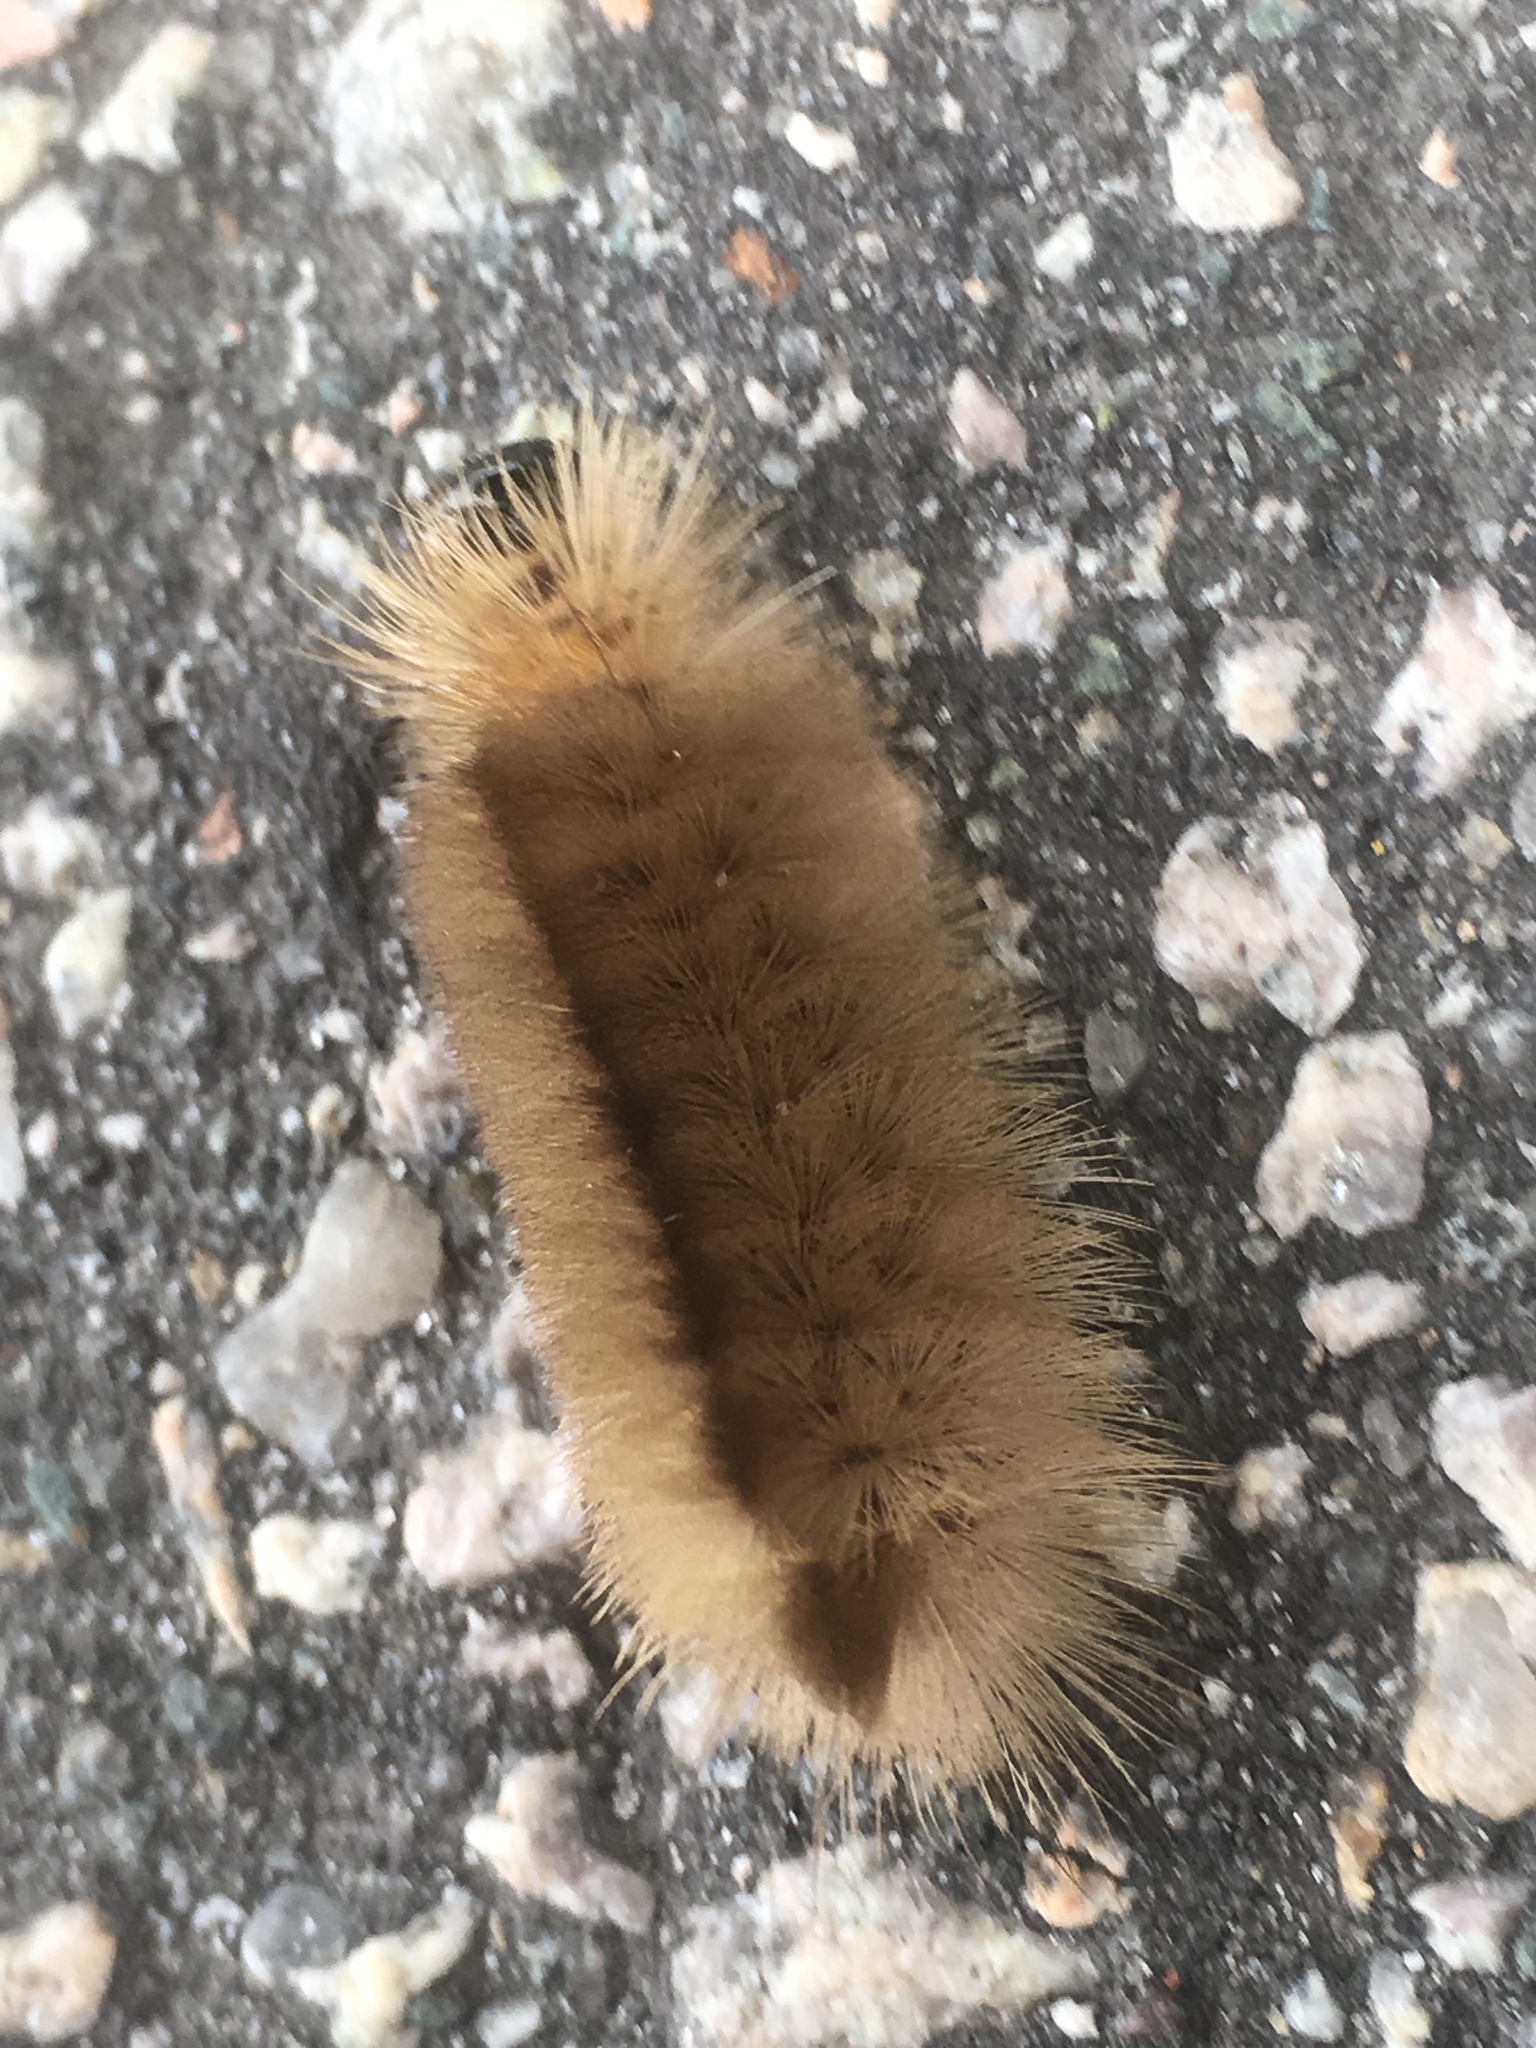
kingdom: Animalia
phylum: Arthropoda
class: Insecta
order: Lepidoptera
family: Erebidae
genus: Halysidota
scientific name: Halysidota tessellaris
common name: Banded tussock moth
